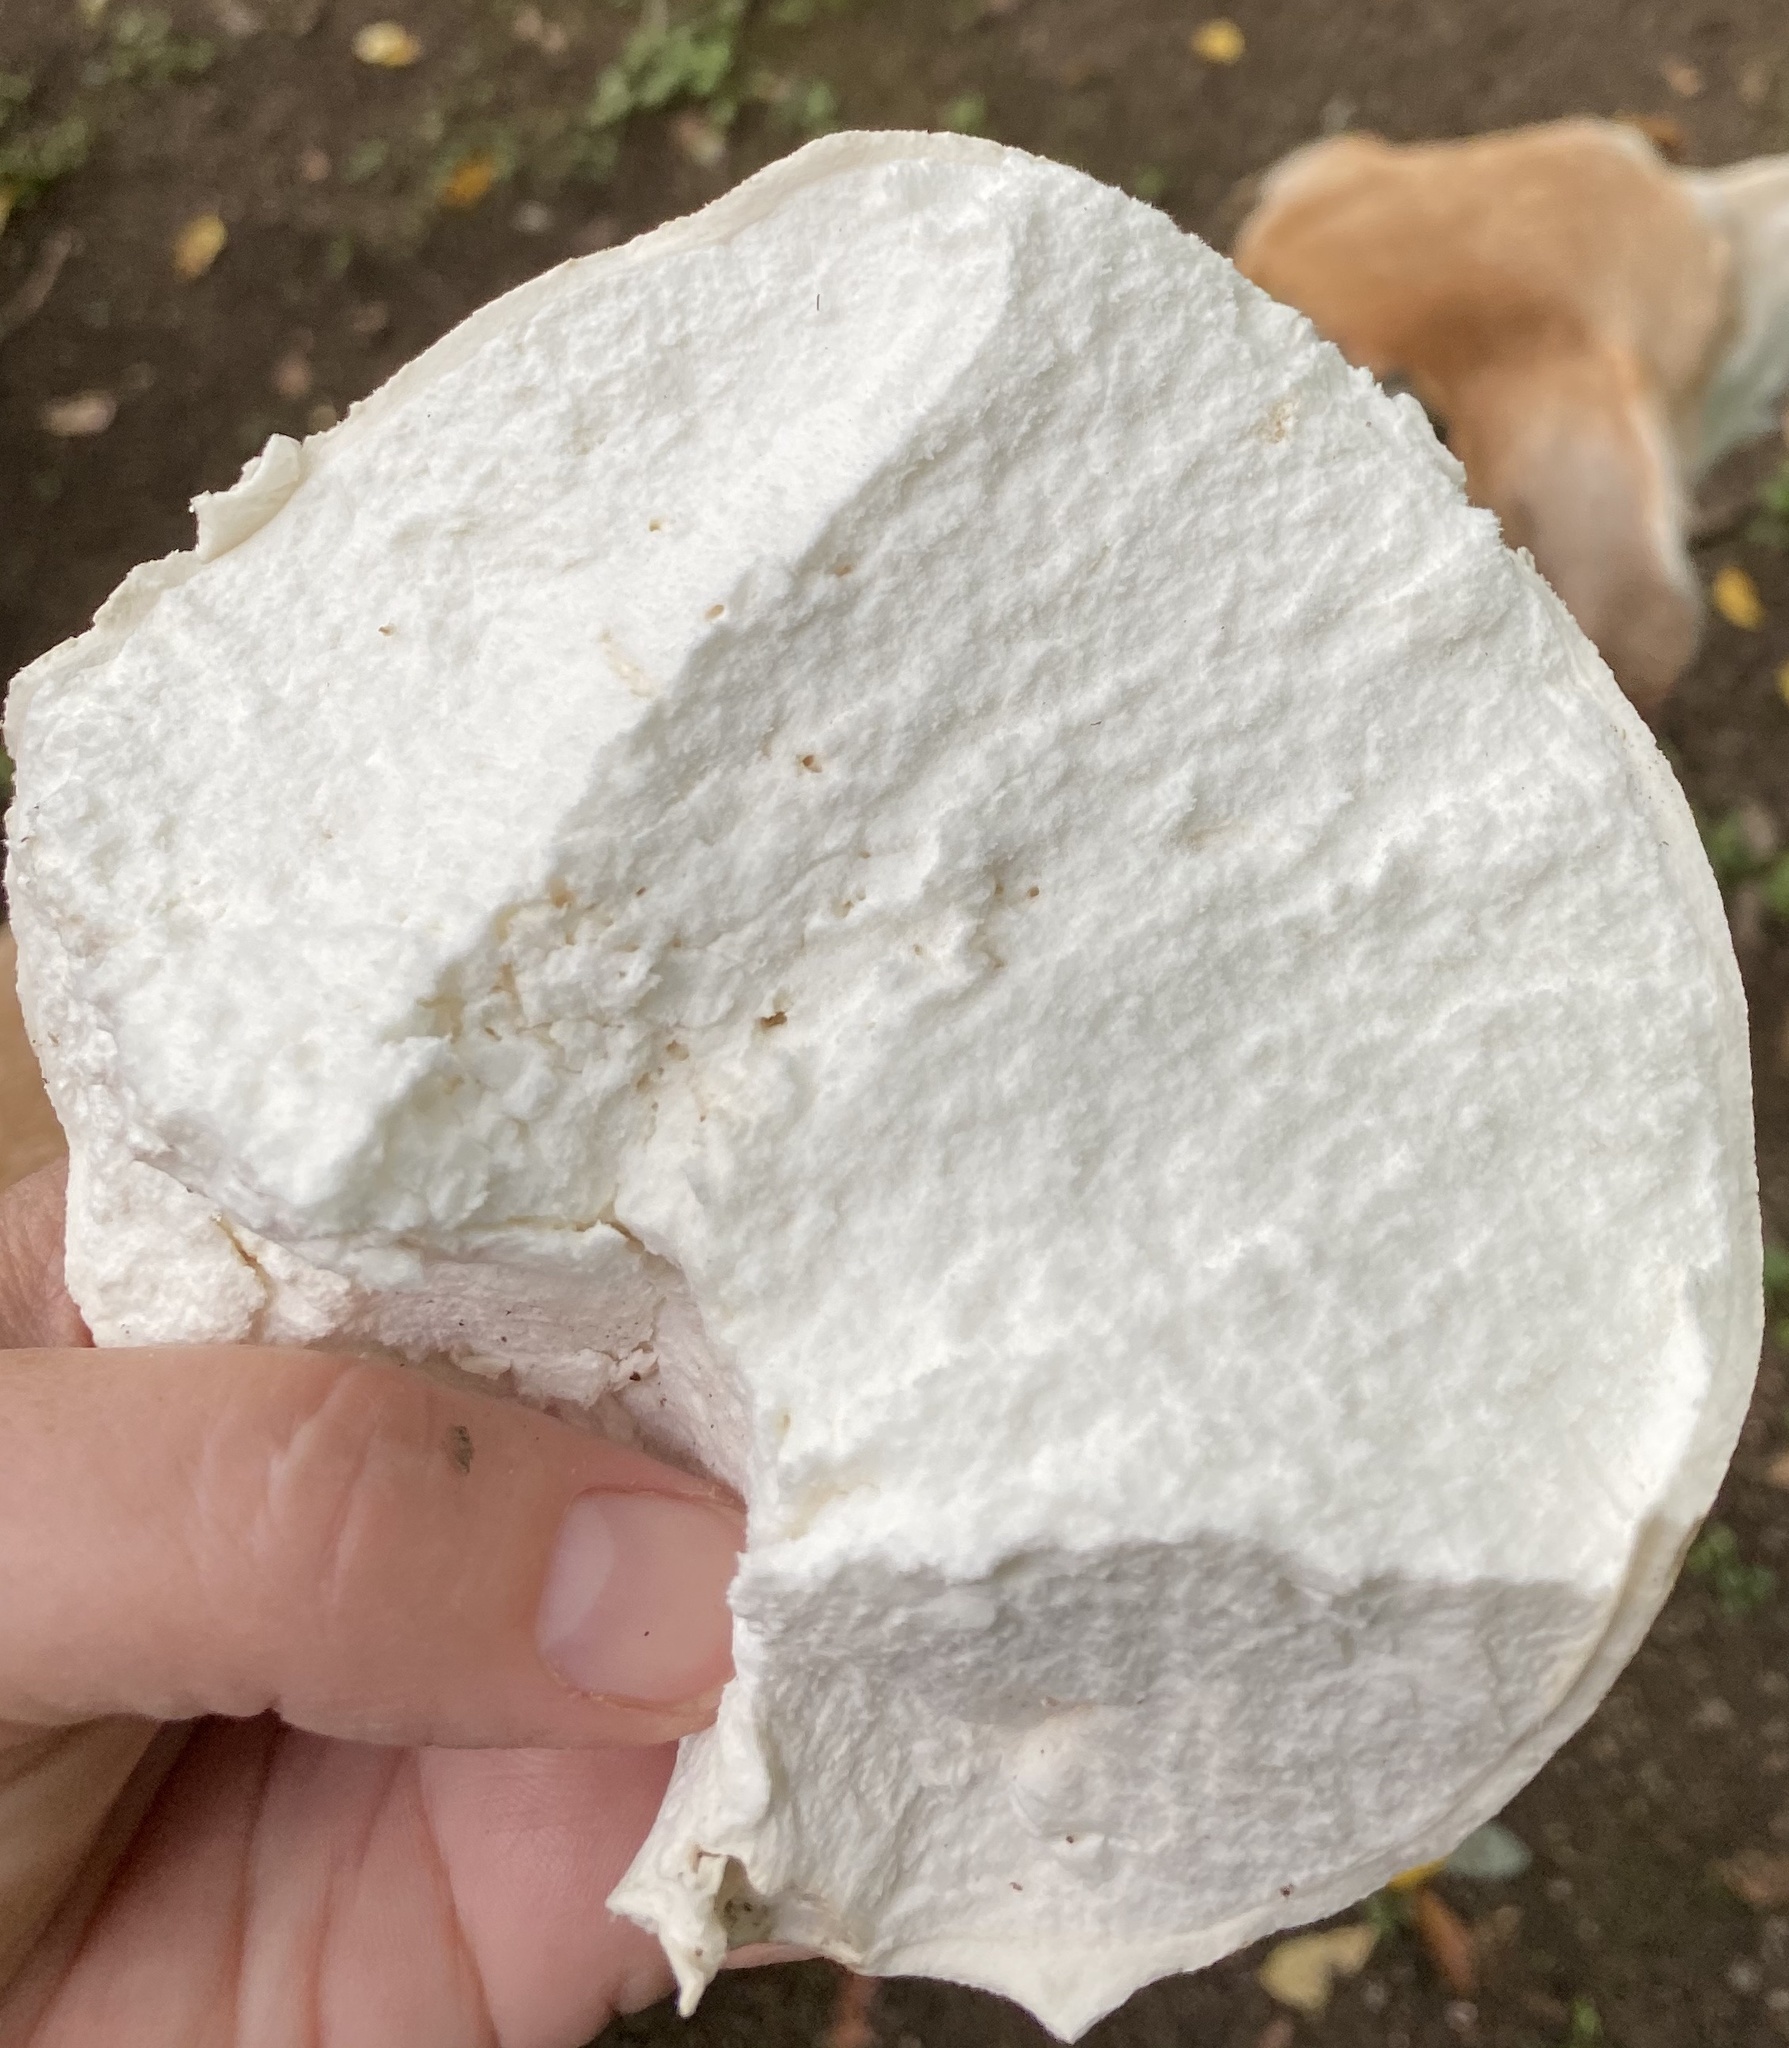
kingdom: Fungi
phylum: Basidiomycota
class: Agaricomycetes
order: Agaricales
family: Lycoperdaceae
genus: Calvatia
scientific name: Calvatia gigantea
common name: Giant puffball
